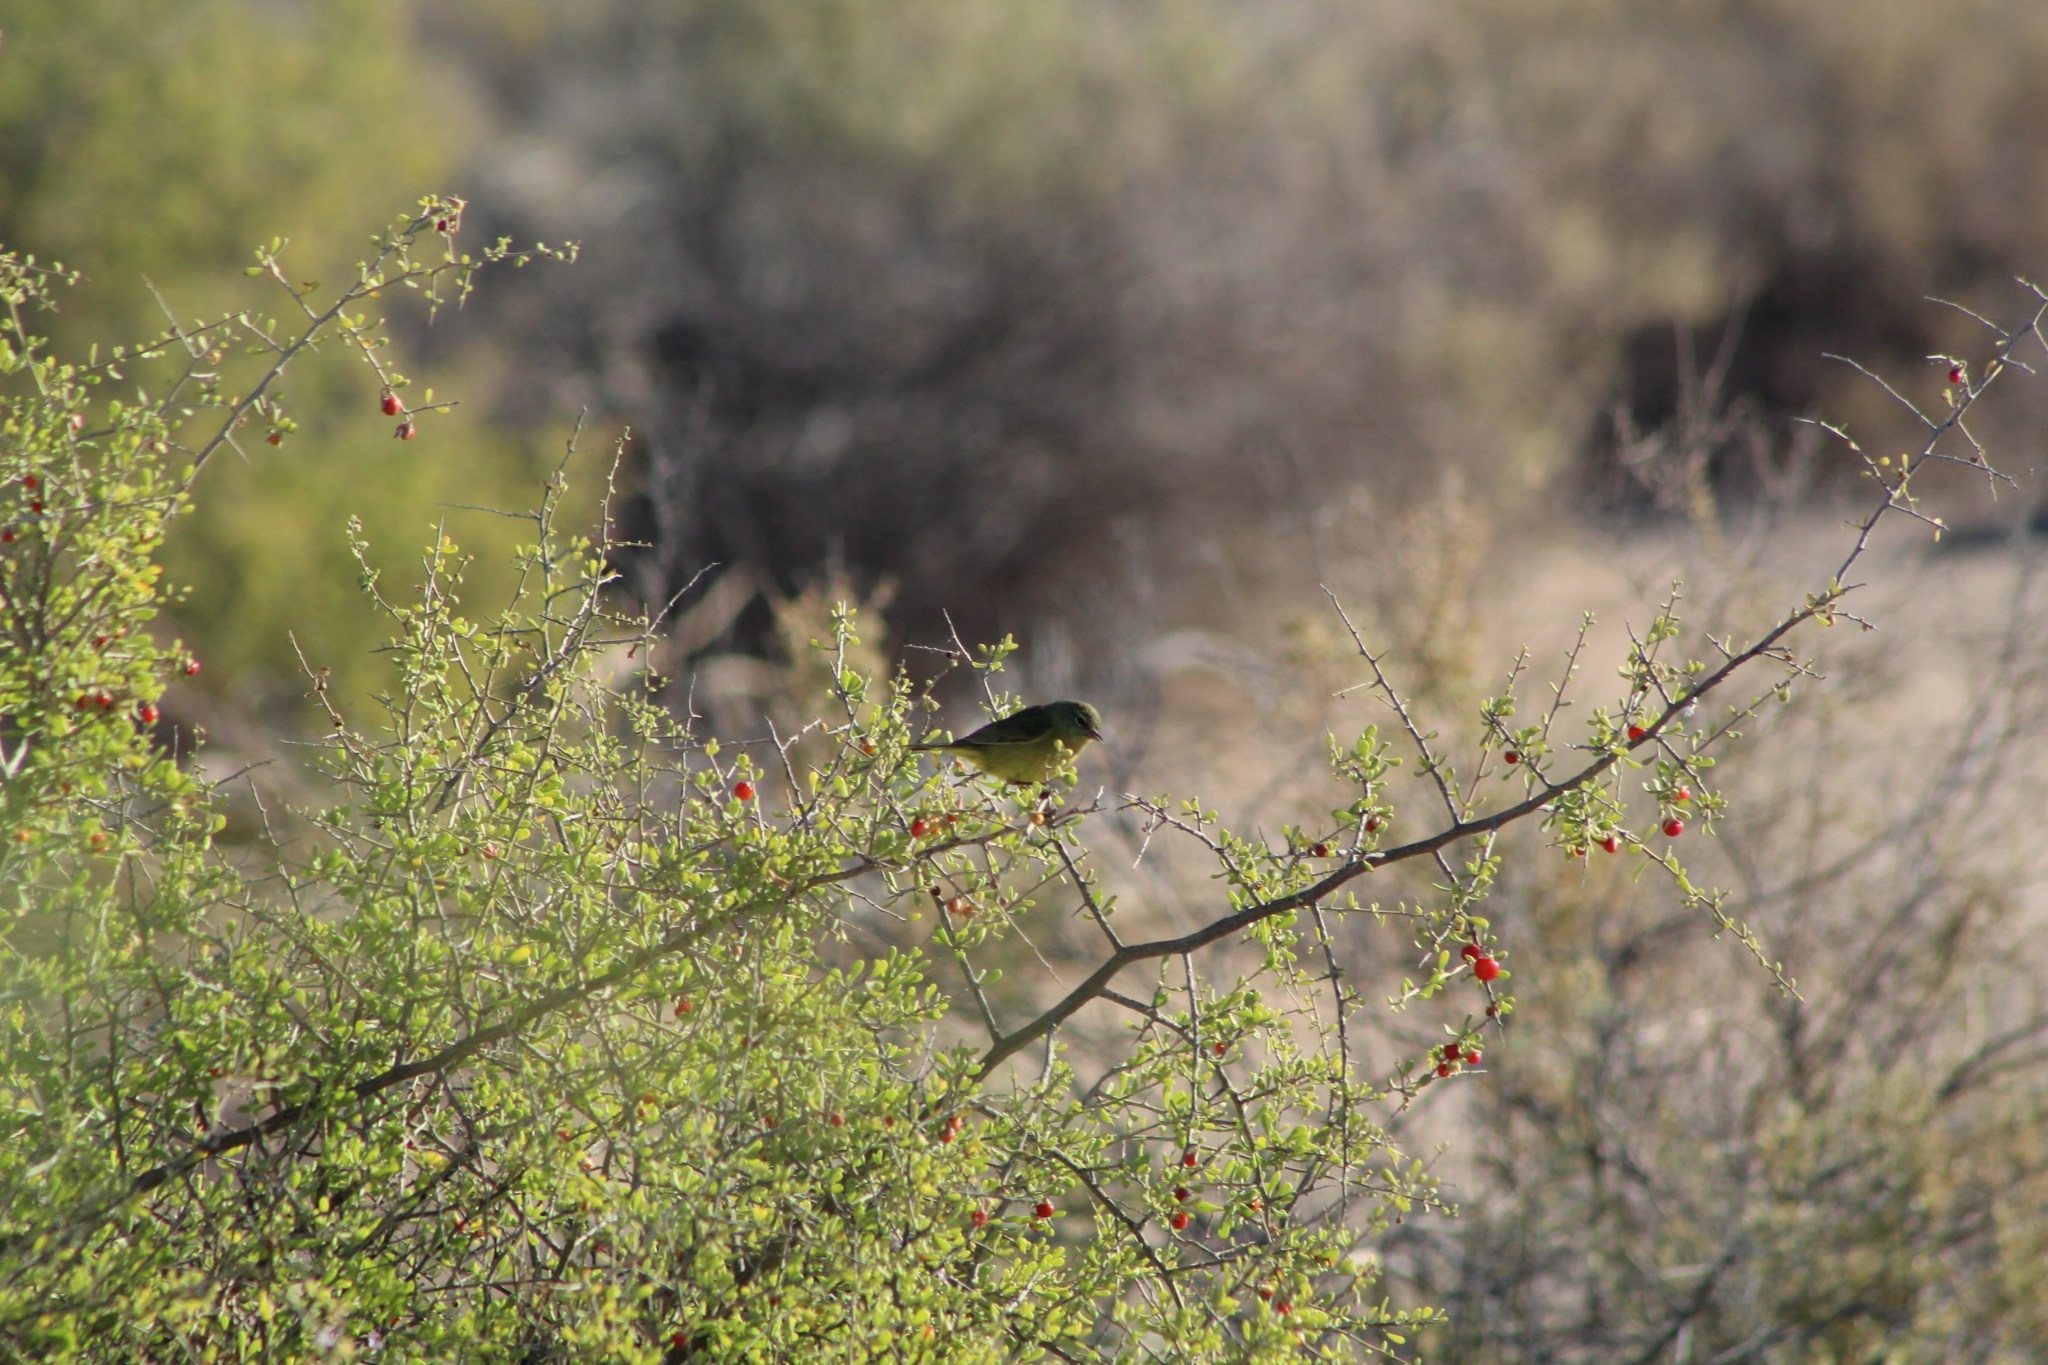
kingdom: Animalia
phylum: Chordata
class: Aves
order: Passeriformes
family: Parulidae
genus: Leiothlypis
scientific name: Leiothlypis celata
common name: Orange-crowned warbler
